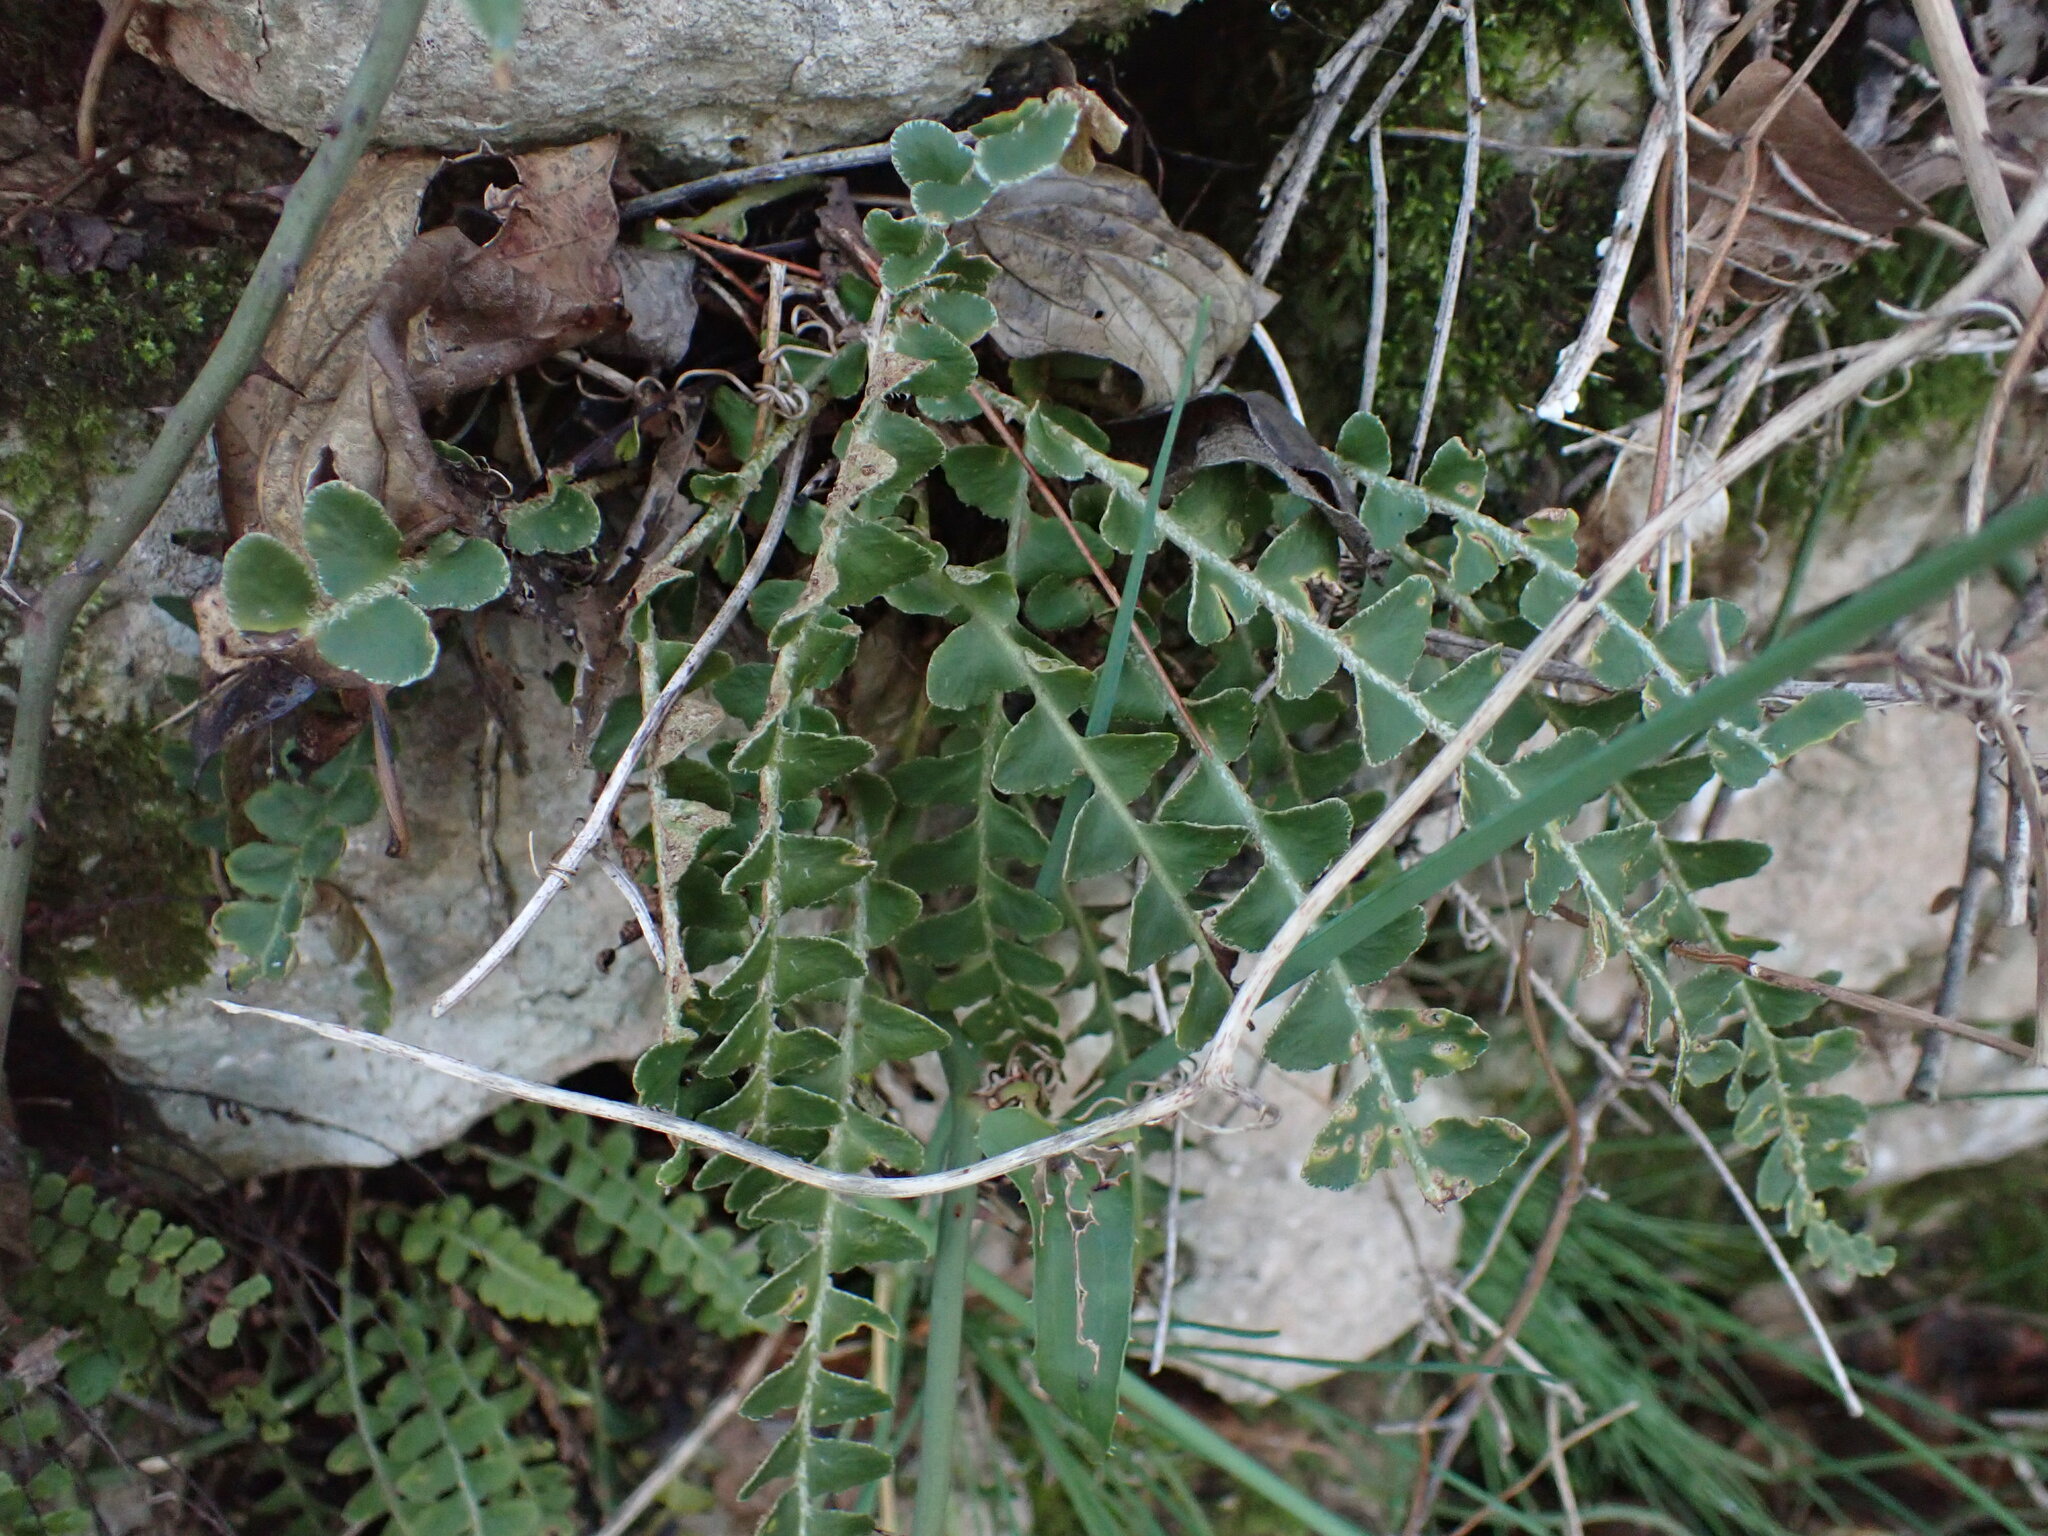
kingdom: Plantae
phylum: Tracheophyta
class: Polypodiopsida
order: Polypodiales
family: Aspleniaceae
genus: Asplenium
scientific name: Asplenium ceterach
